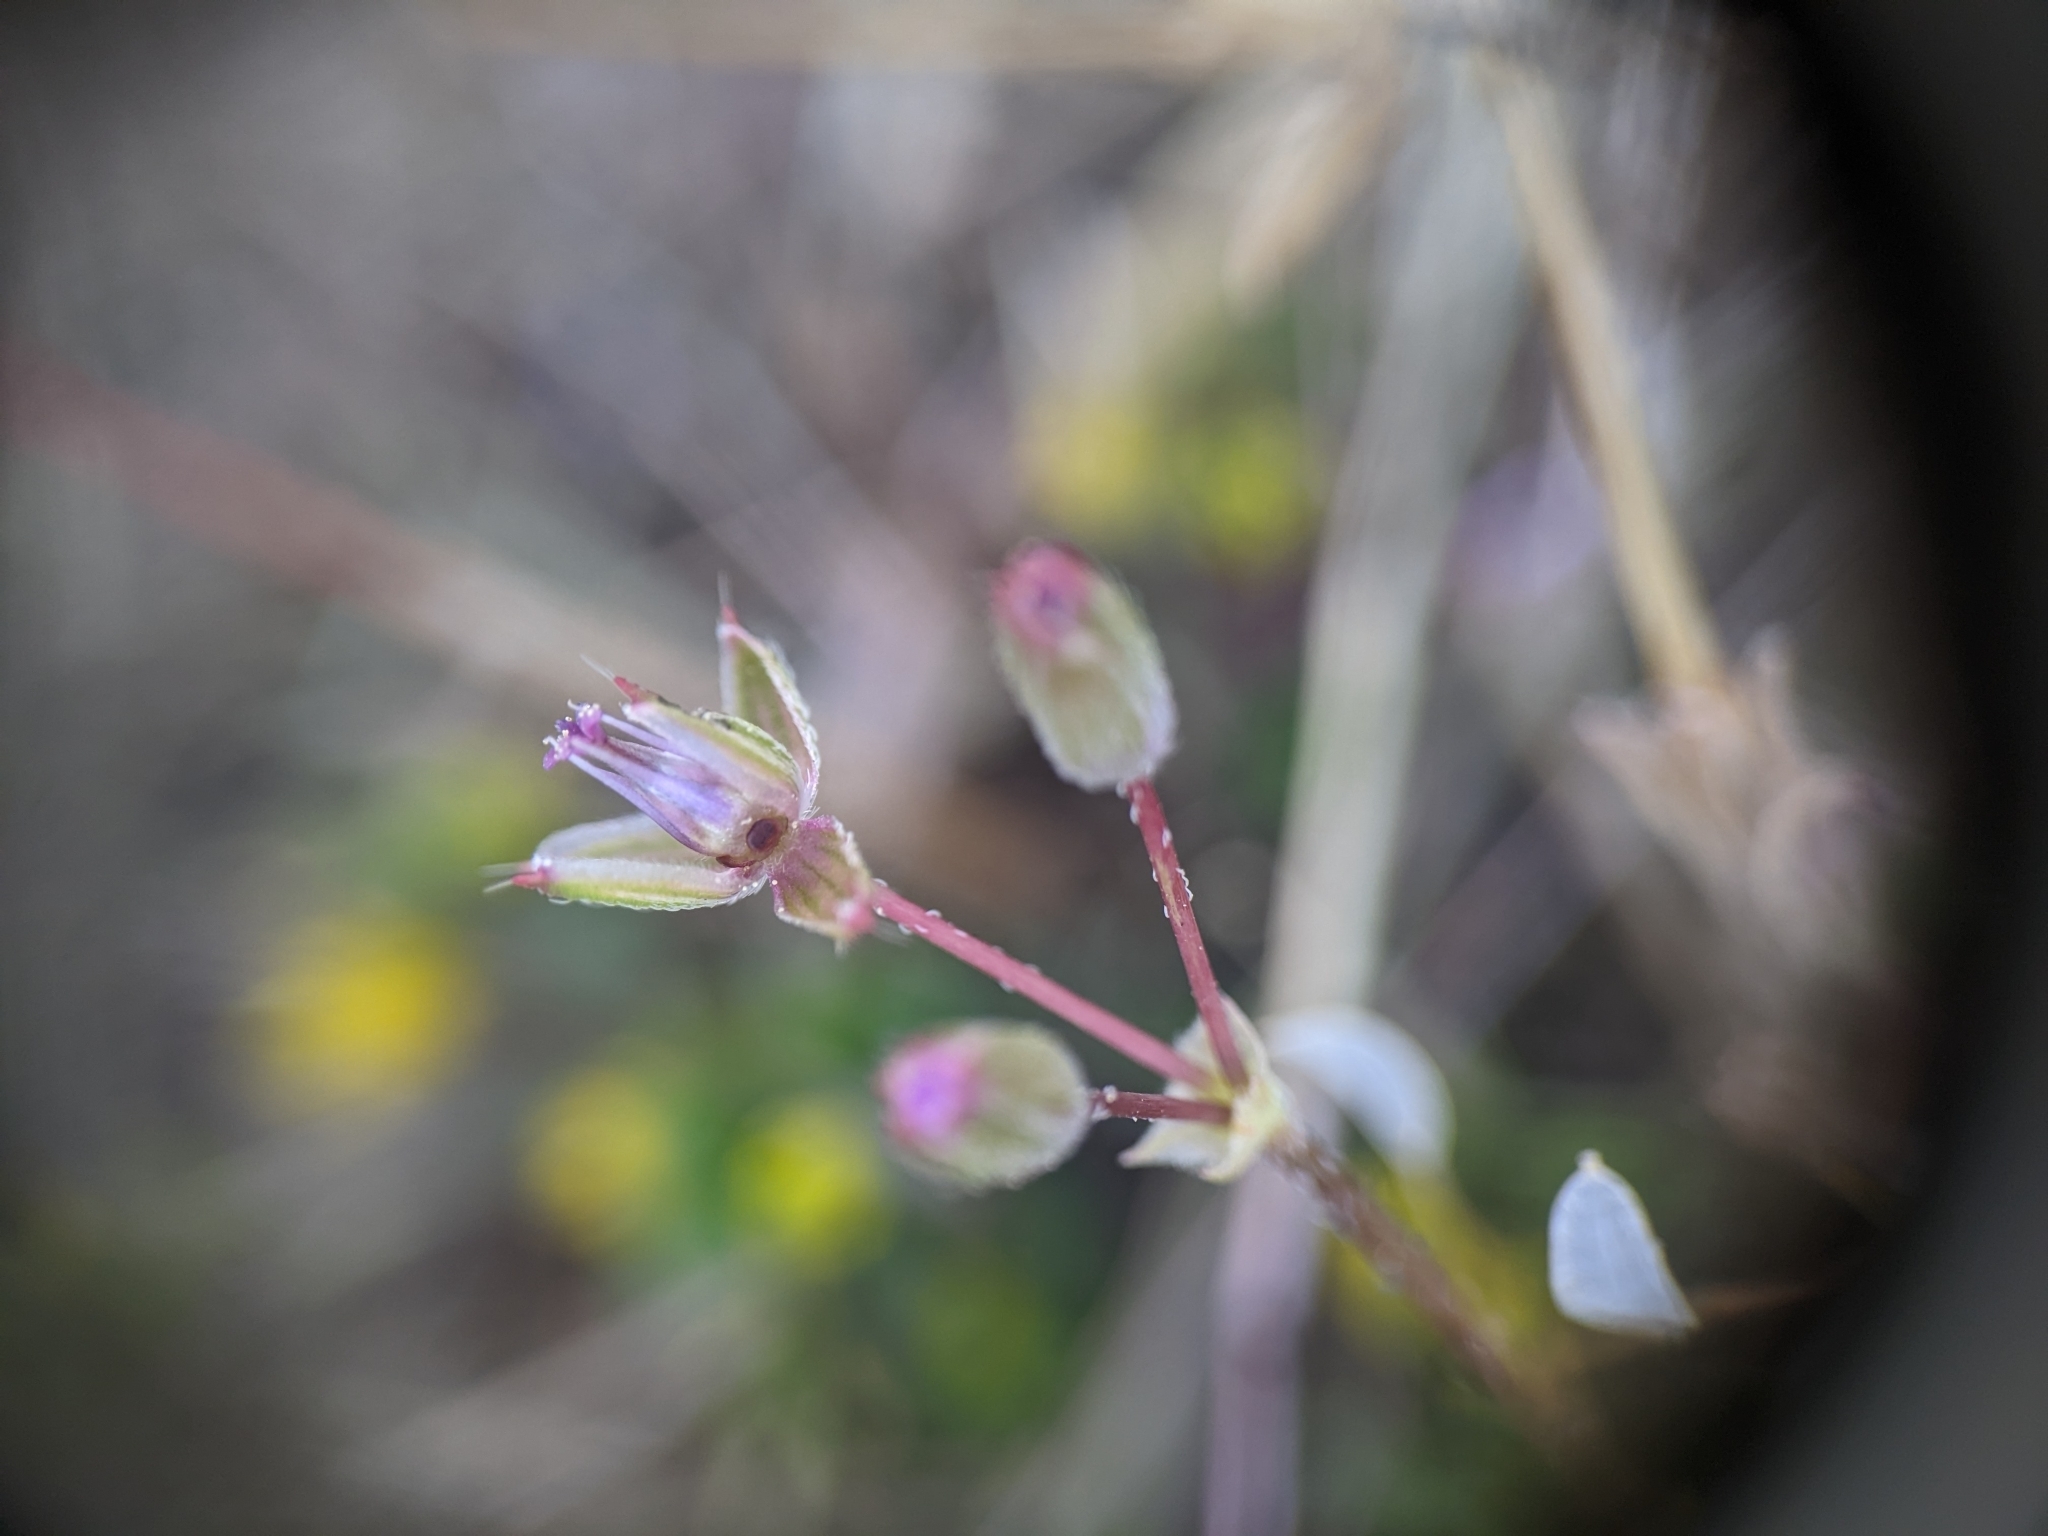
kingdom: Plantae
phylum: Tracheophyta
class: Magnoliopsida
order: Geraniales
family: Geraniaceae
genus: Erodium
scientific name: Erodium cicutarium
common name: Common stork's-bill
